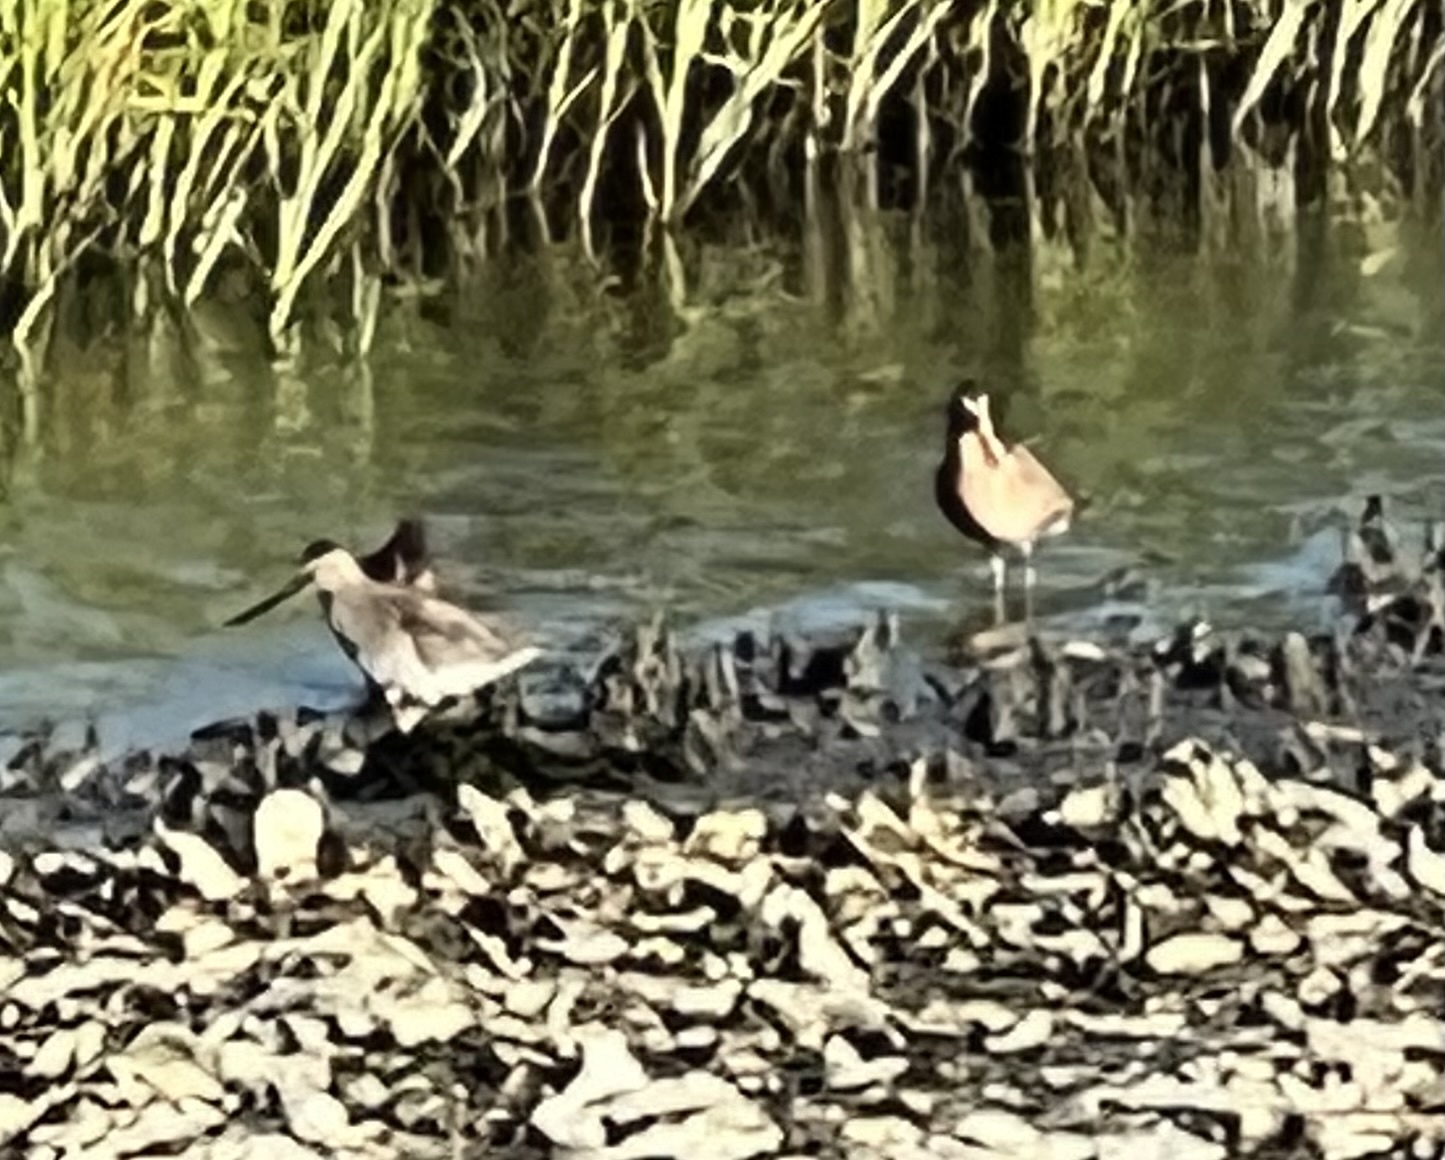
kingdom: Animalia
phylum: Chordata
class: Aves
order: Charadriiformes
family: Scolopacidae
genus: Limnodromus
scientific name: Limnodromus
